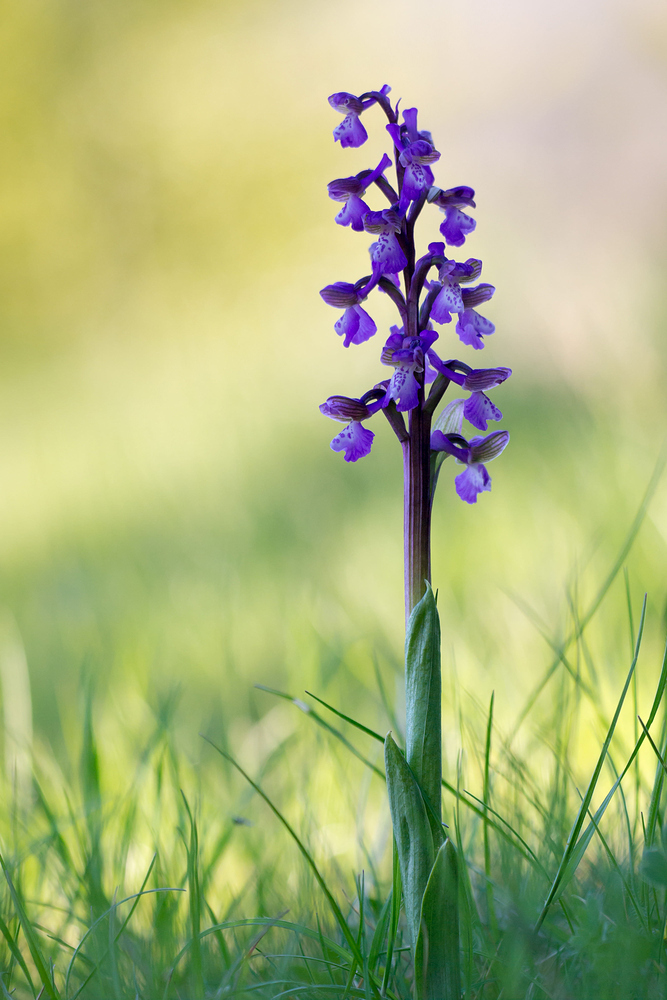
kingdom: Plantae
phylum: Tracheophyta
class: Liliopsida
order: Asparagales
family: Orchidaceae
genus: Anacamptis
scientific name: Anacamptis morio
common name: Green-winged orchid
